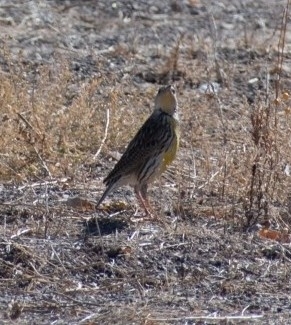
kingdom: Animalia
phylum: Chordata
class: Aves
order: Passeriformes
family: Icteridae
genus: Sturnella
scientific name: Sturnella lilianae
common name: Lilian's meadowlark
